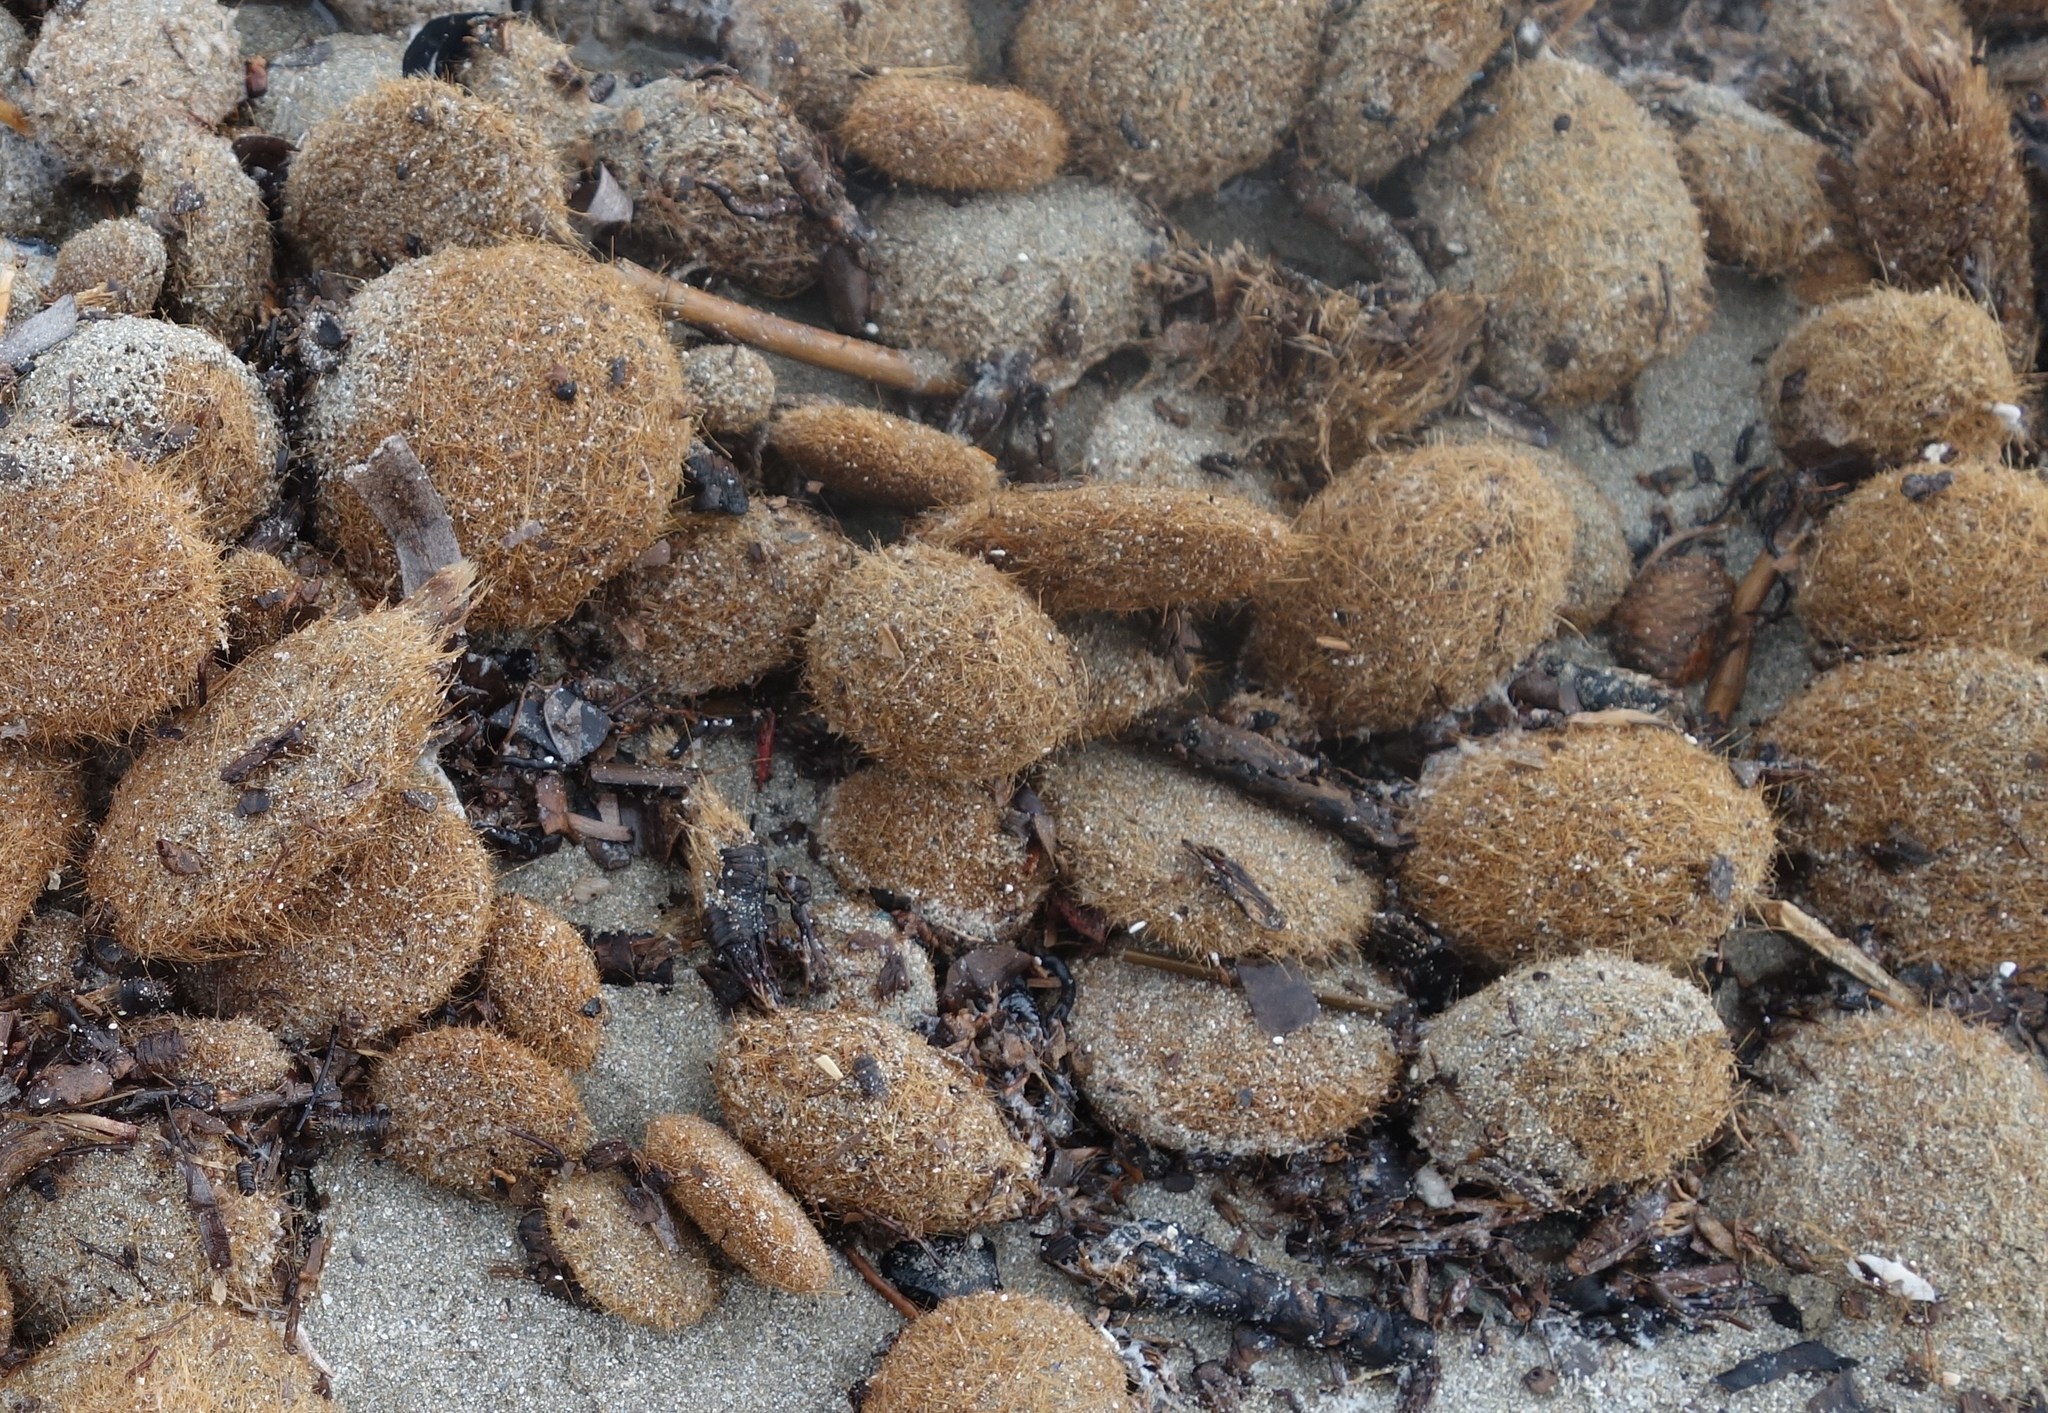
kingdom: Plantae
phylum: Tracheophyta
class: Liliopsida
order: Alismatales
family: Posidoniaceae
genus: Posidonia
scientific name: Posidonia oceanica
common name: Mediterranean tapeweed
